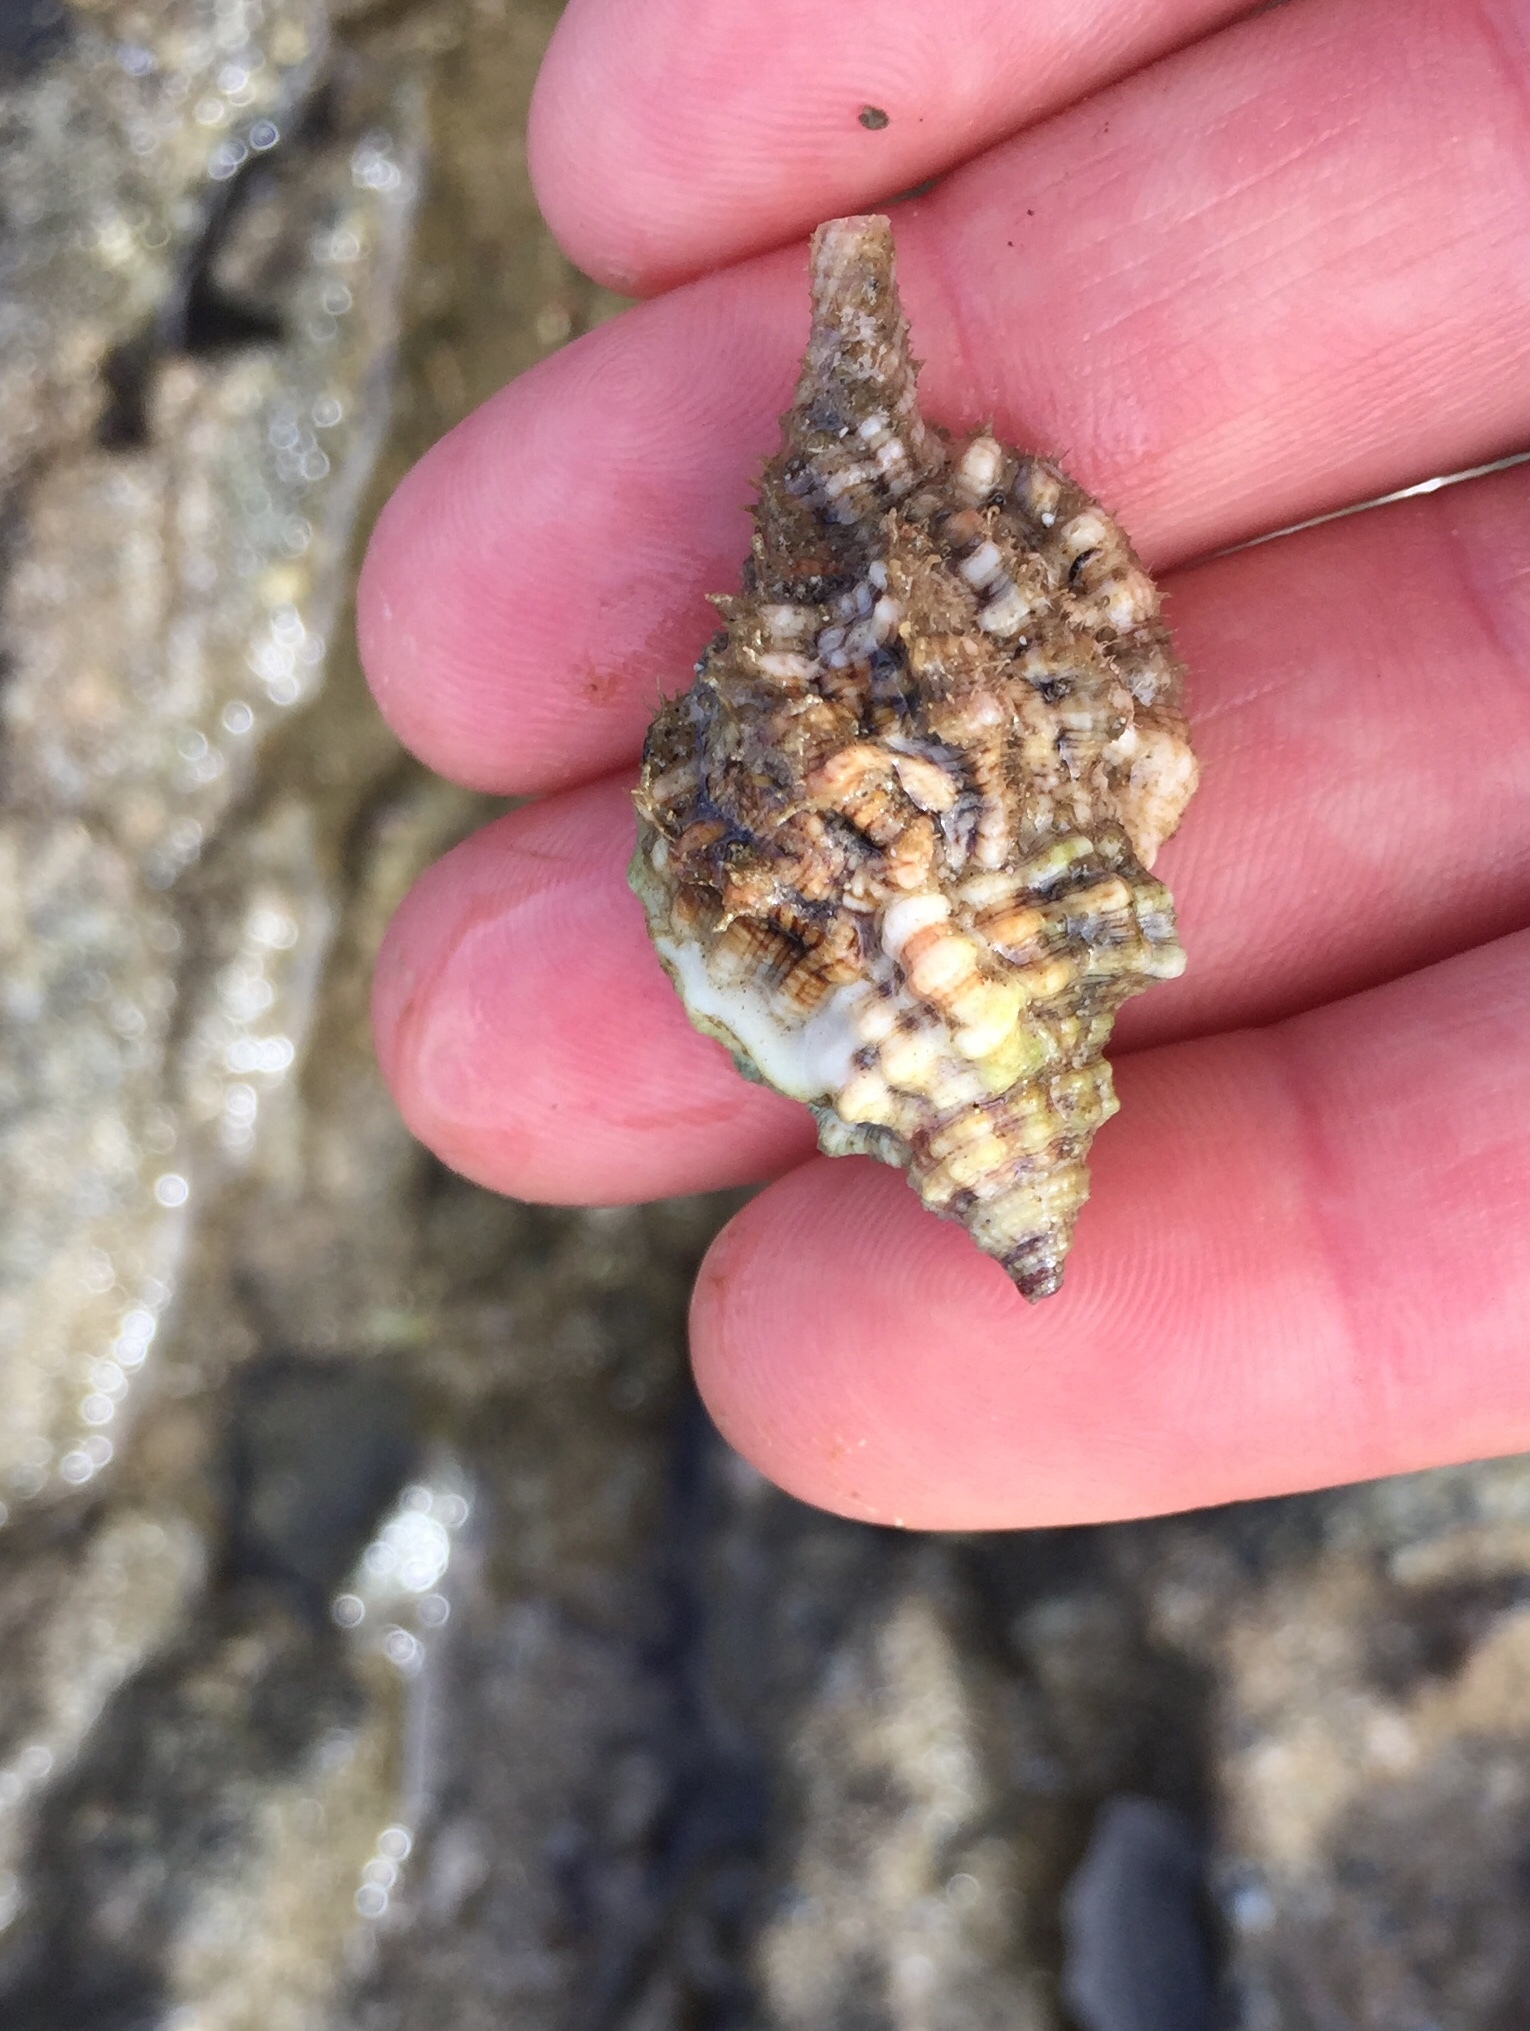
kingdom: Animalia
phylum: Mollusca
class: Gastropoda
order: Littorinimorpha
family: Cymatiidae
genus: Gutturnium
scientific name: Gutturnium muricinum
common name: Knobbed triton
